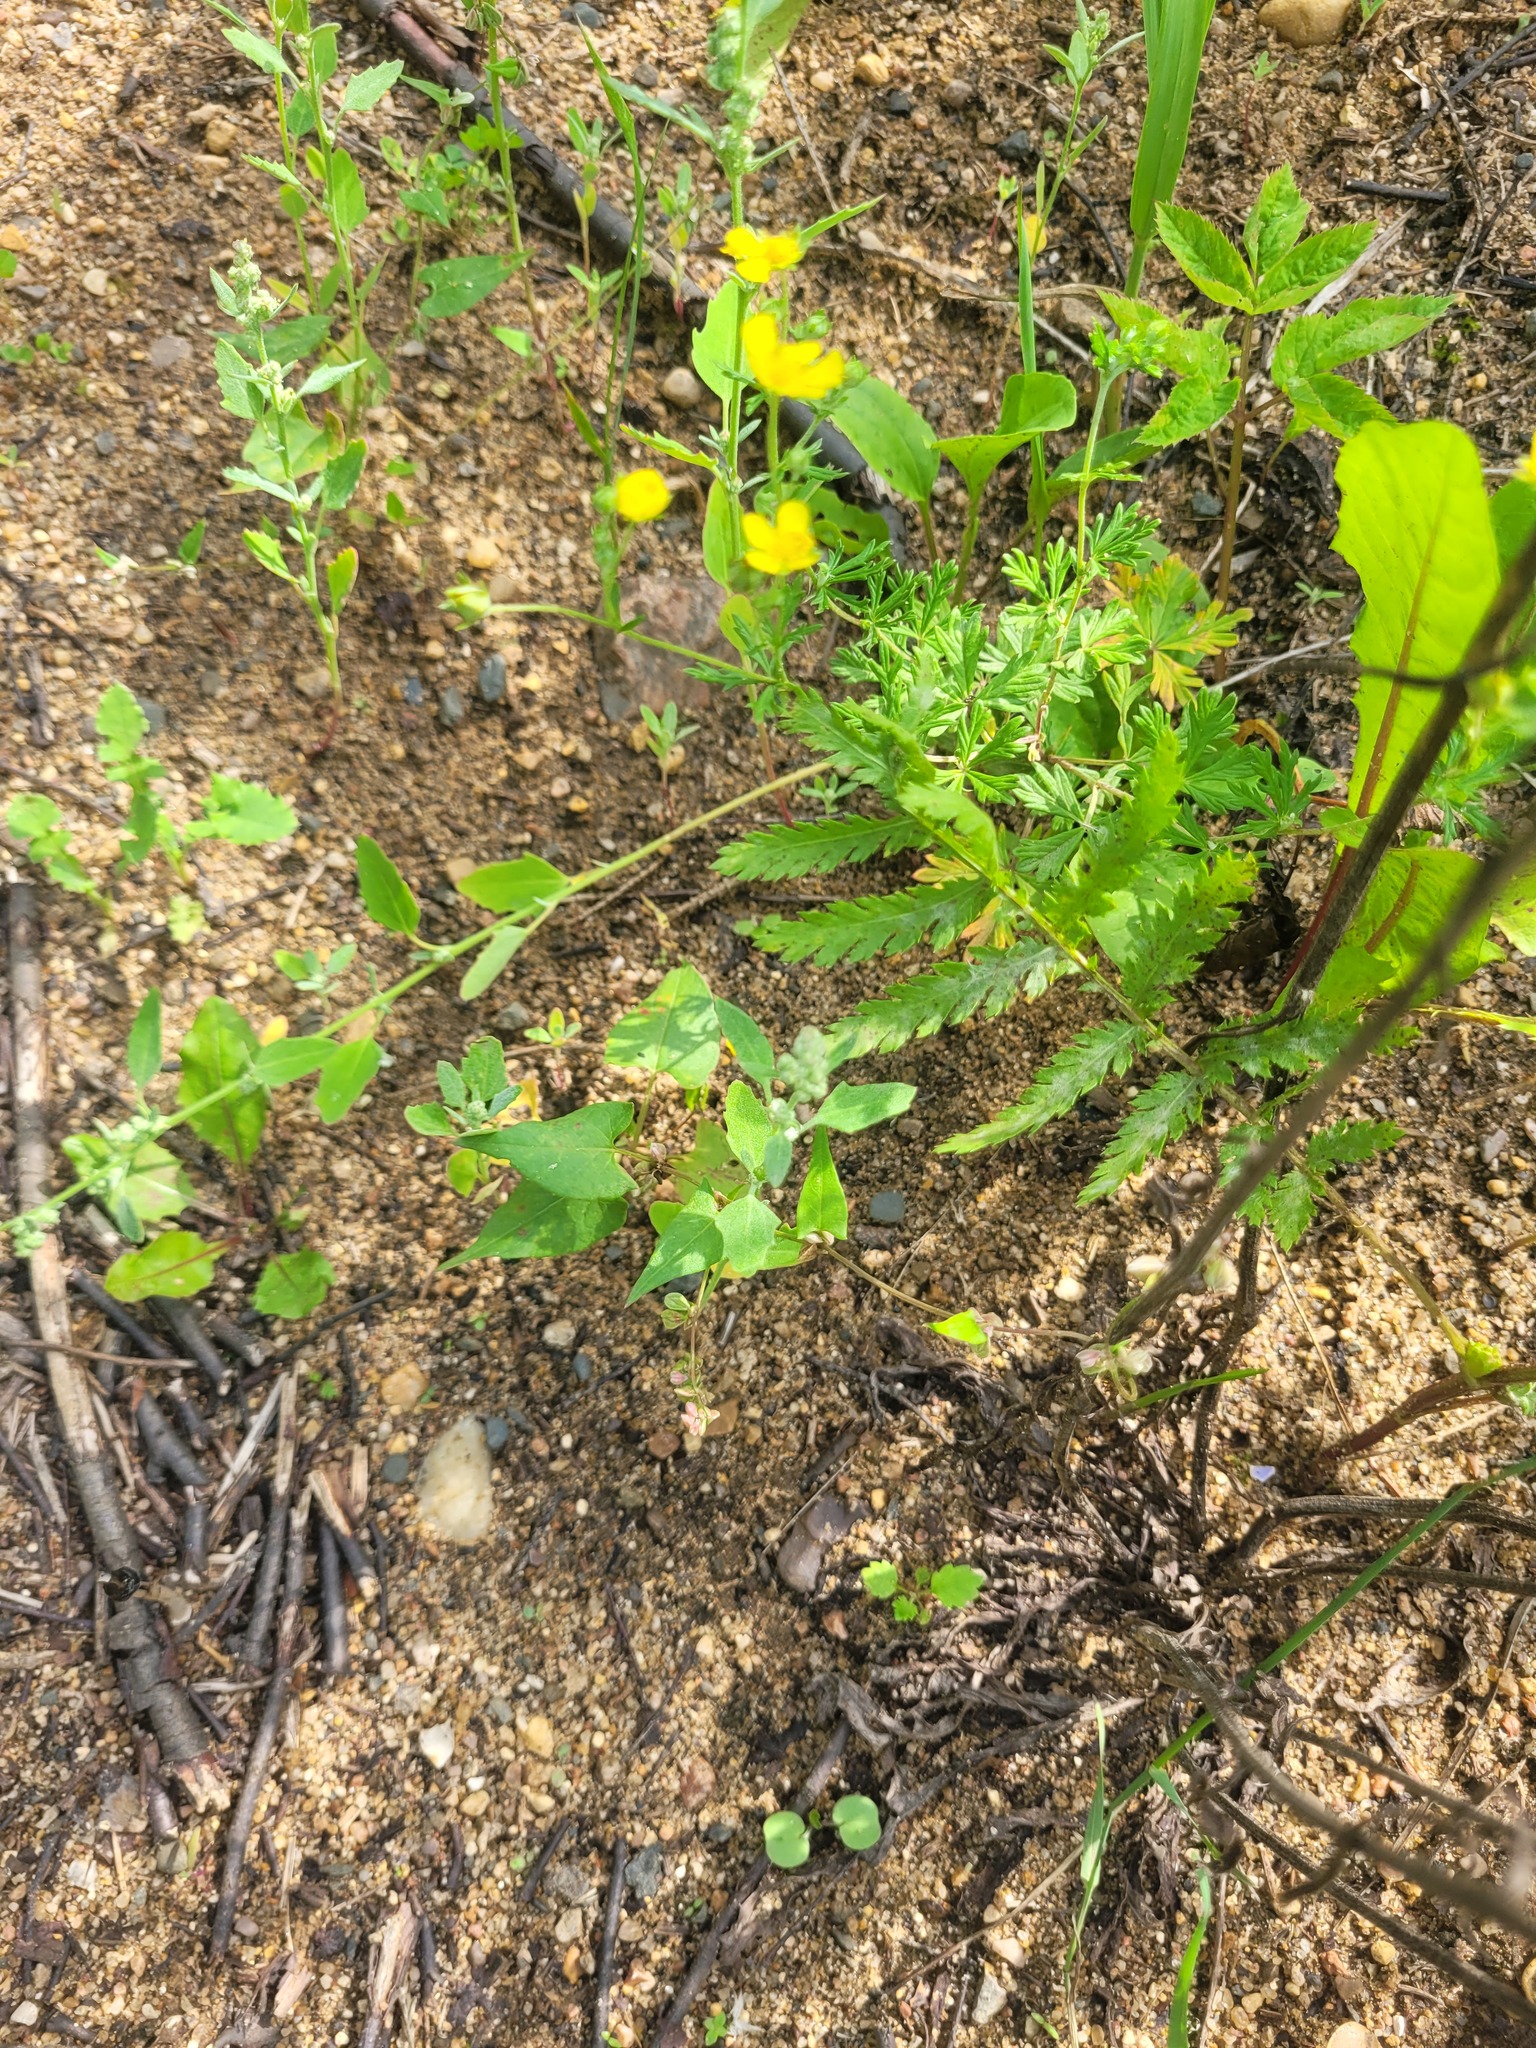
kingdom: Plantae
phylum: Tracheophyta
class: Magnoliopsida
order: Caryophyllales
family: Amaranthaceae
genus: Chenopodium
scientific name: Chenopodium album
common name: Fat-hen
